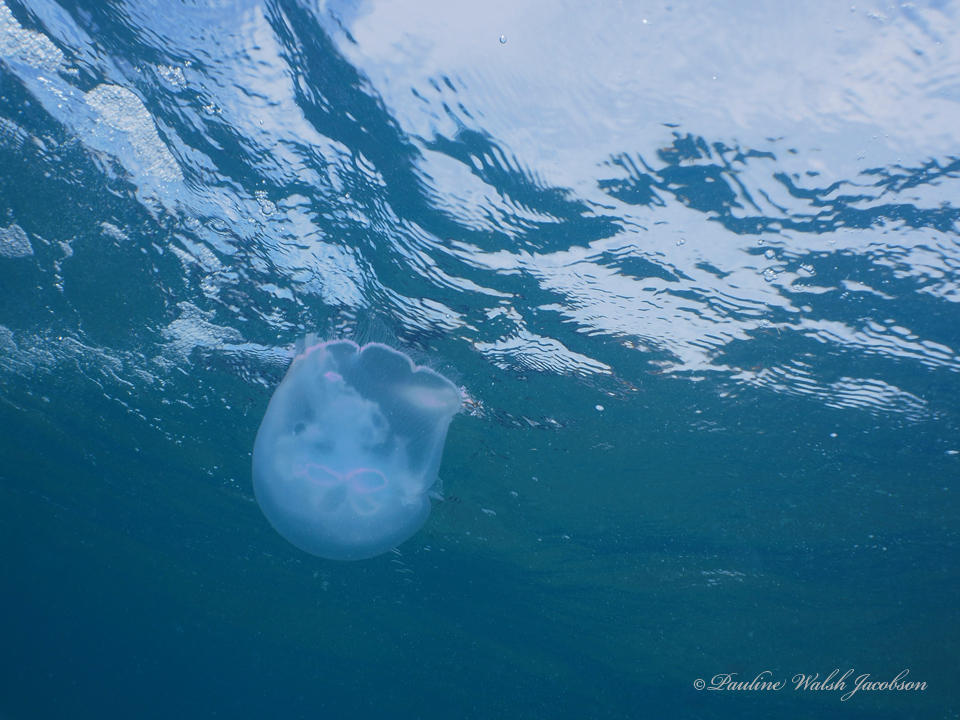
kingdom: Animalia
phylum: Cnidaria
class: Scyphozoa
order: Semaeostomeae
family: Ulmaridae
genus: Aurelia
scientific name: Aurelia marginalis
